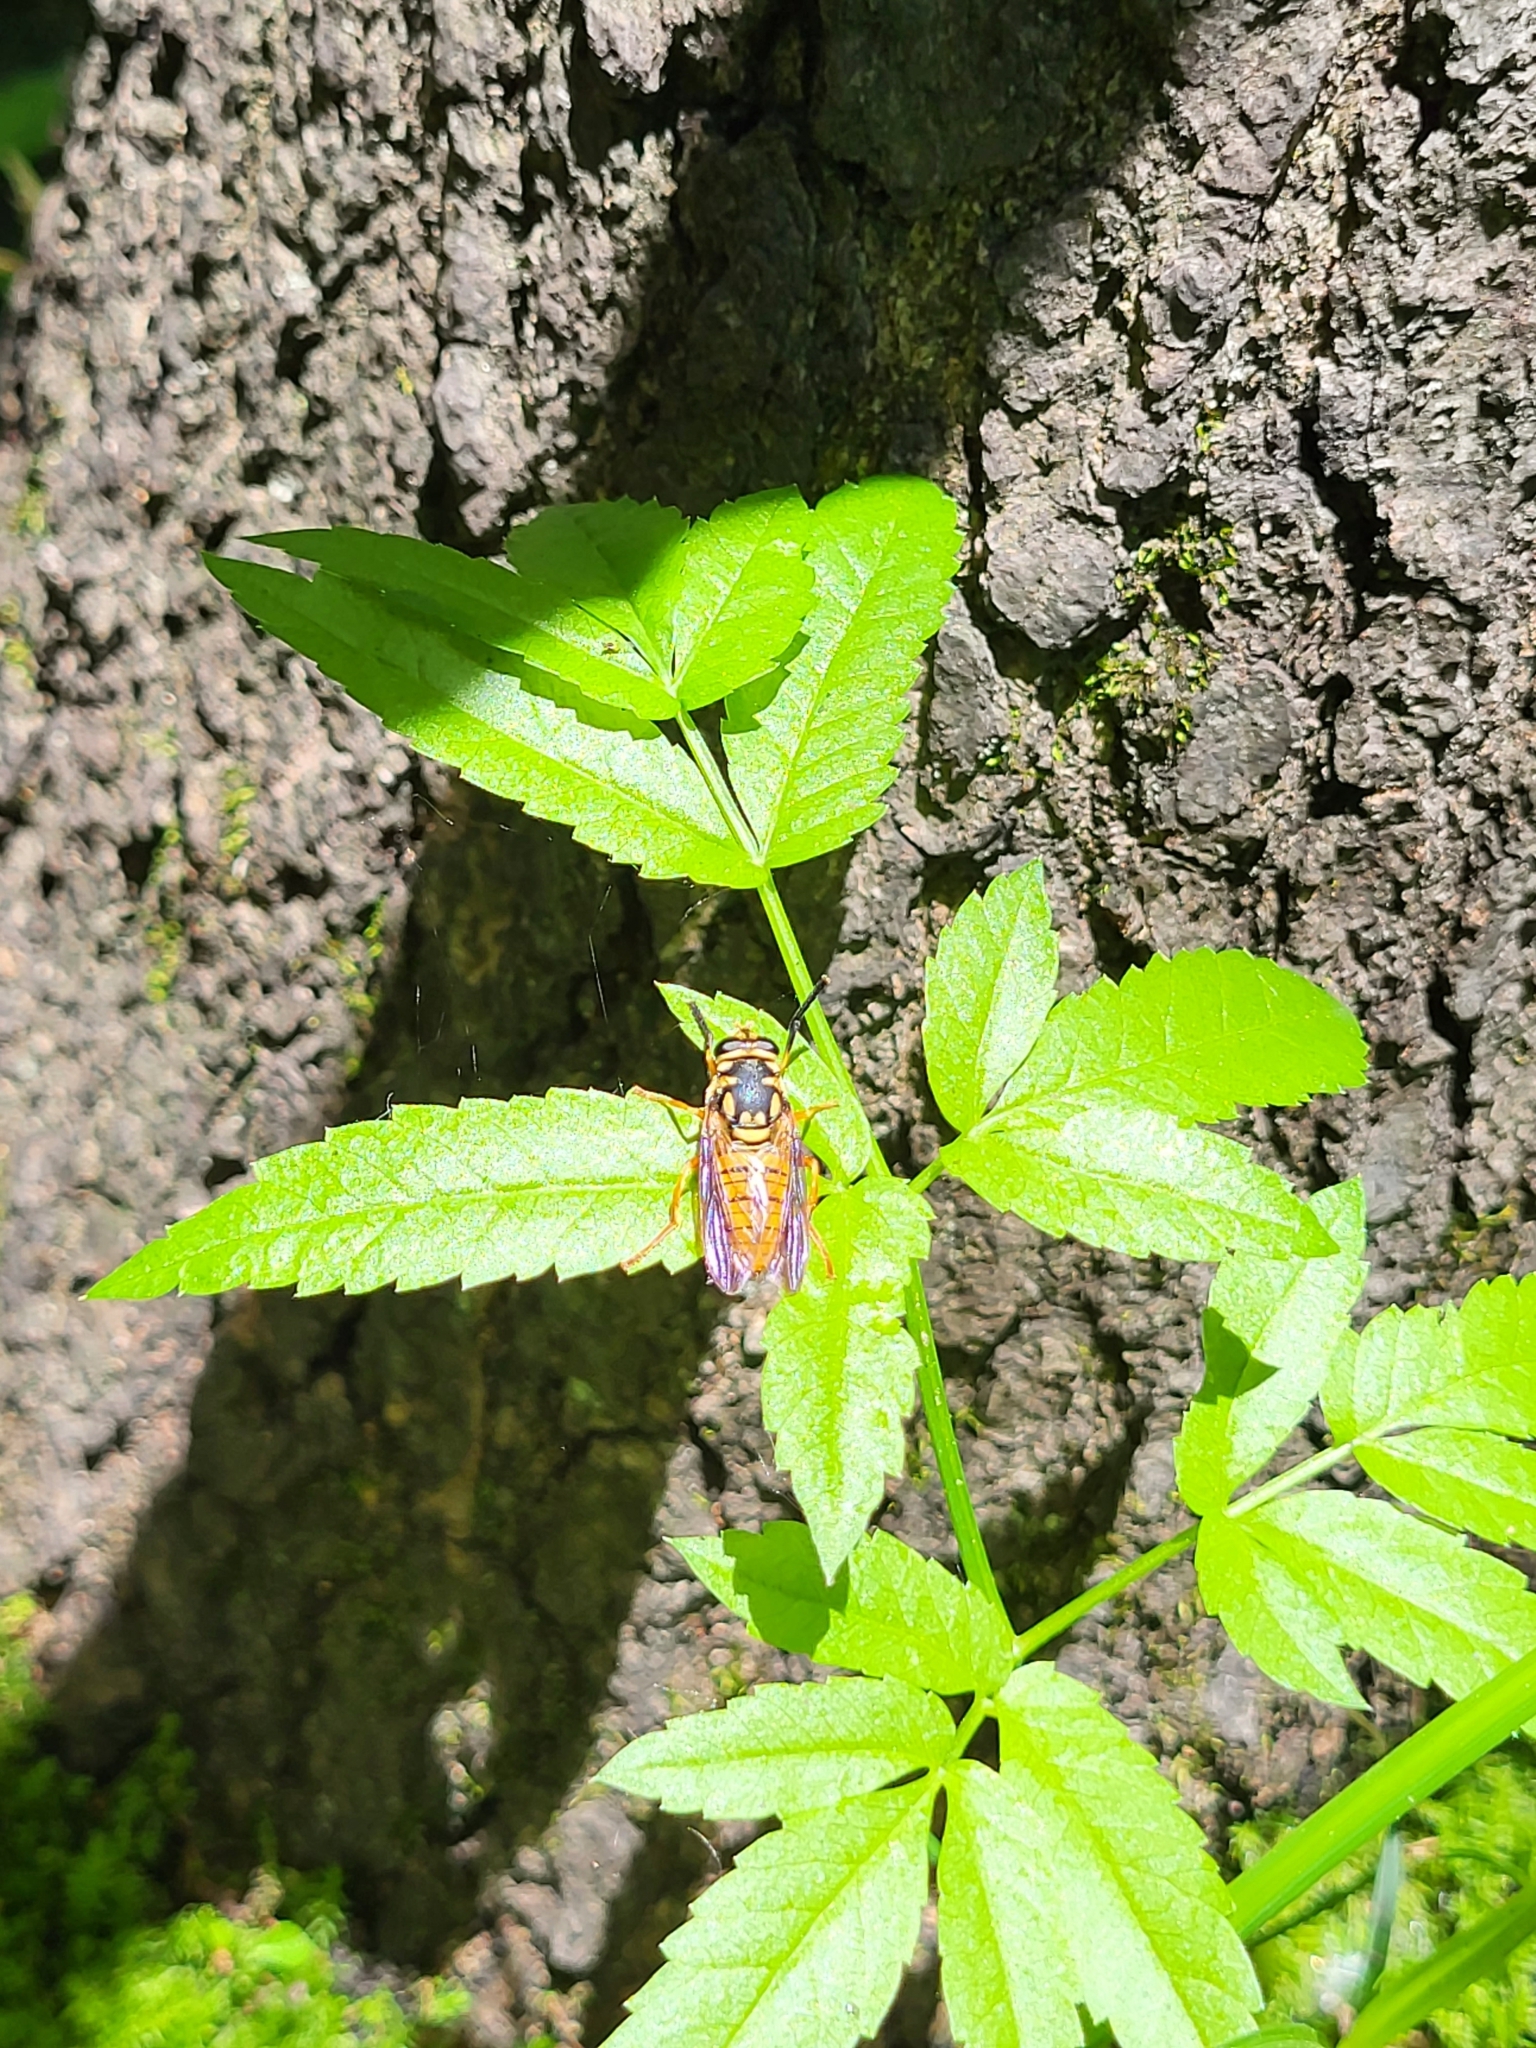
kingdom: Animalia
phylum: Arthropoda
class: Insecta
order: Diptera
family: Syrphidae
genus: Temnostoma
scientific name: Temnostoma daochum
